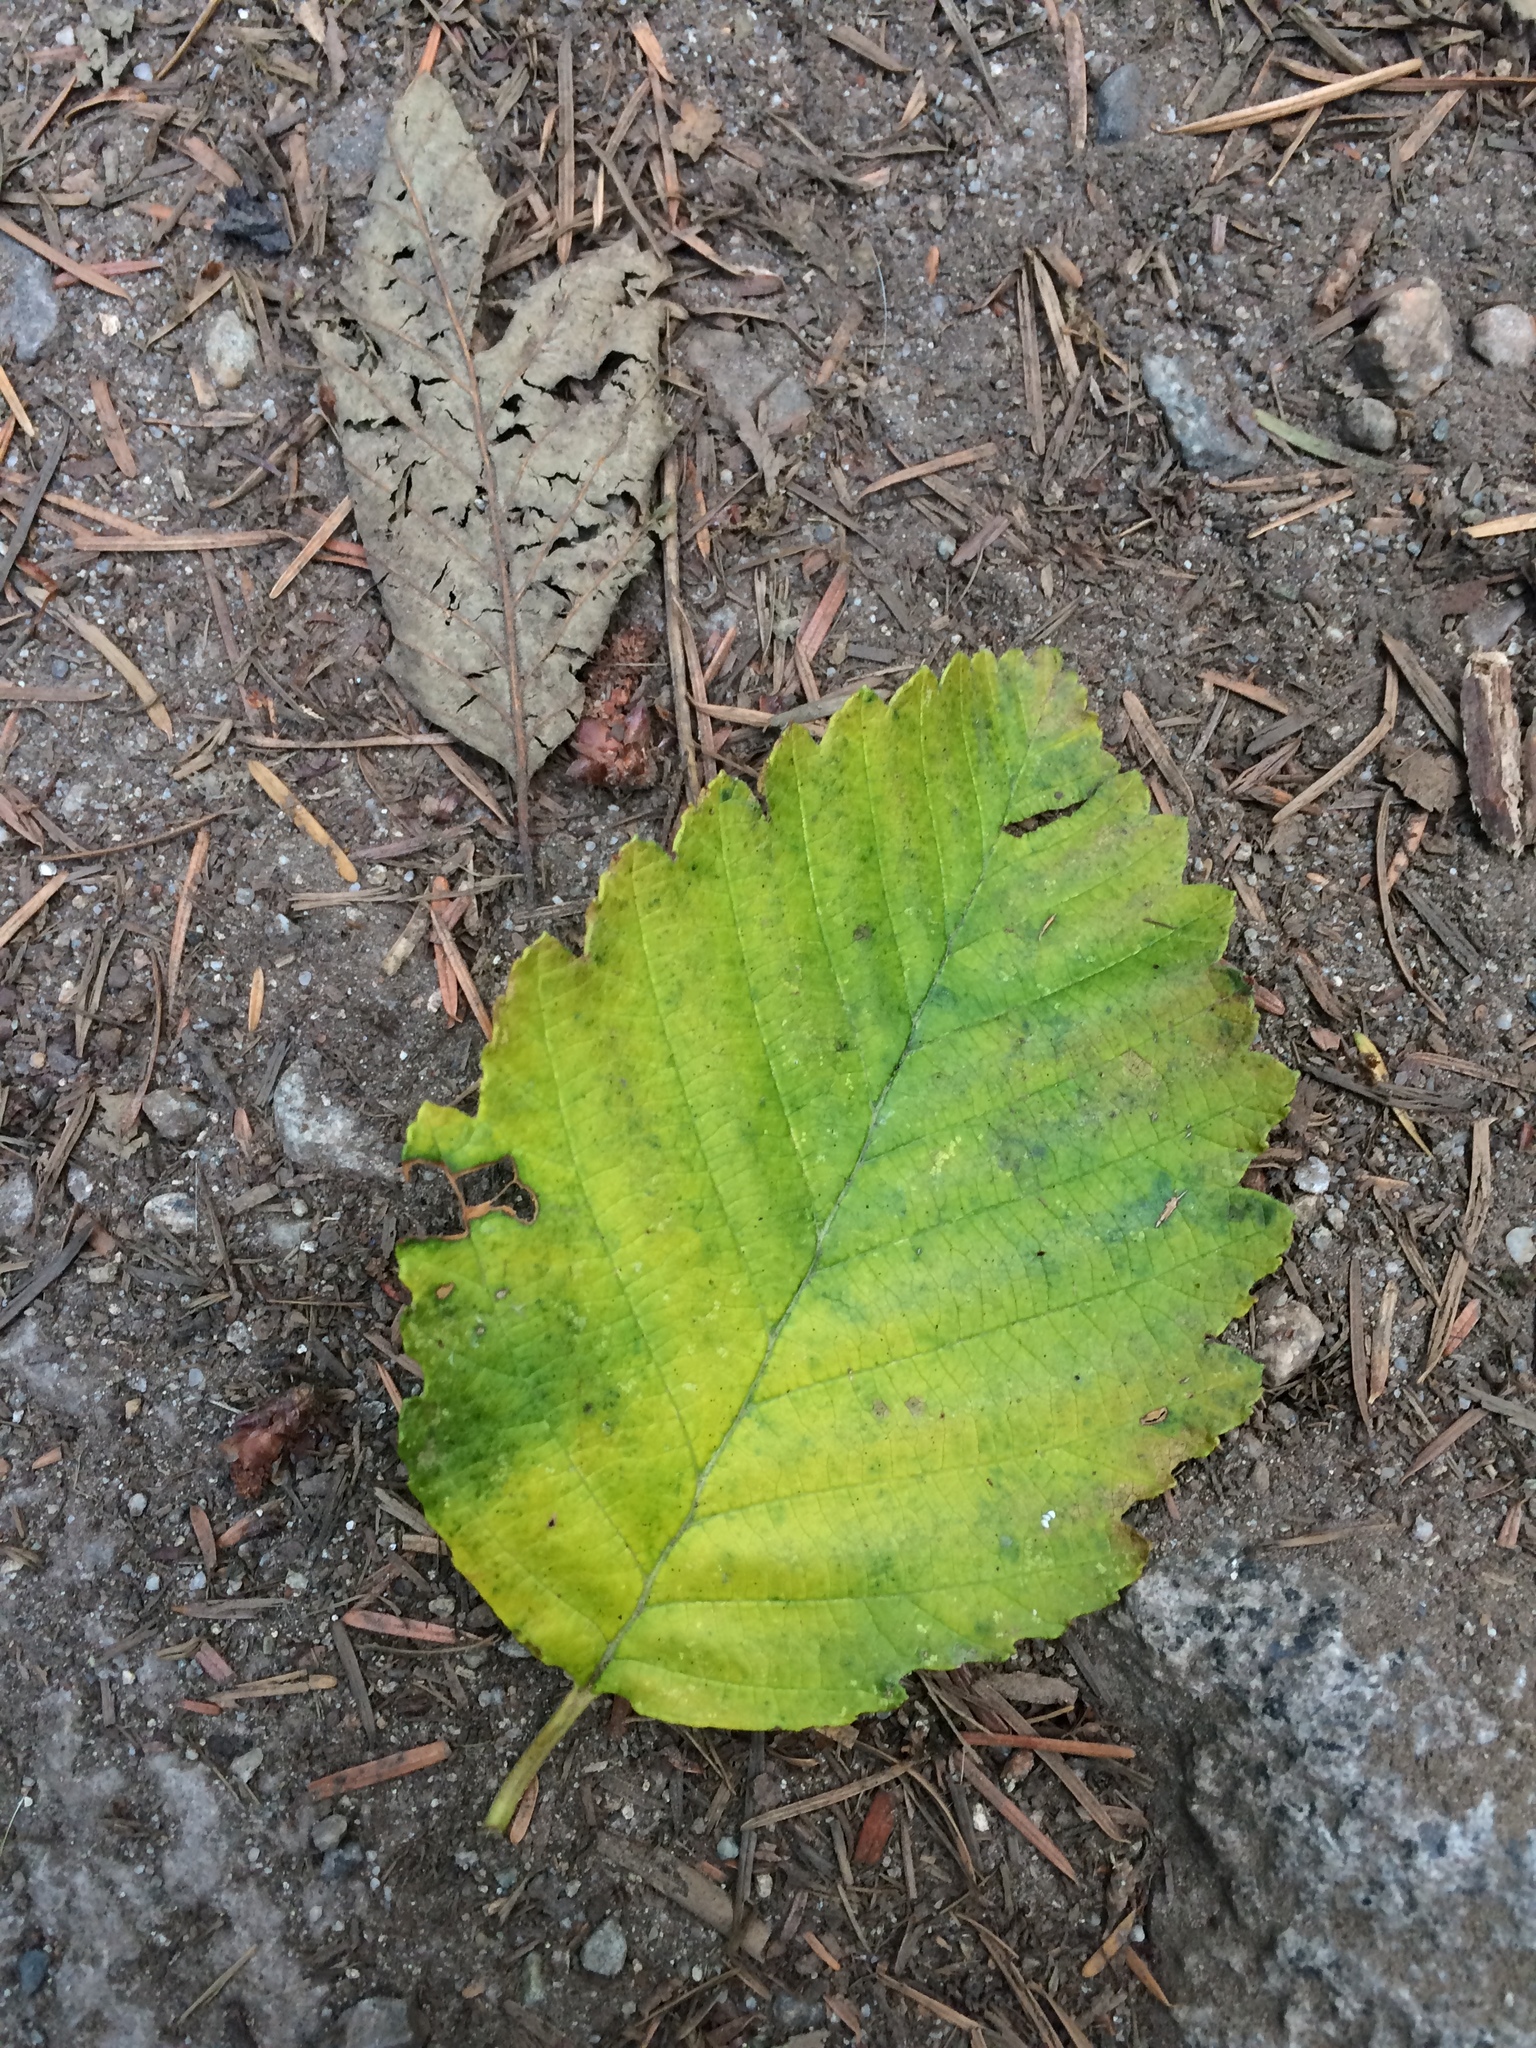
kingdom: Plantae
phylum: Tracheophyta
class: Magnoliopsida
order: Fagales
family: Betulaceae
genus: Alnus
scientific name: Alnus rubra
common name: Red alder
